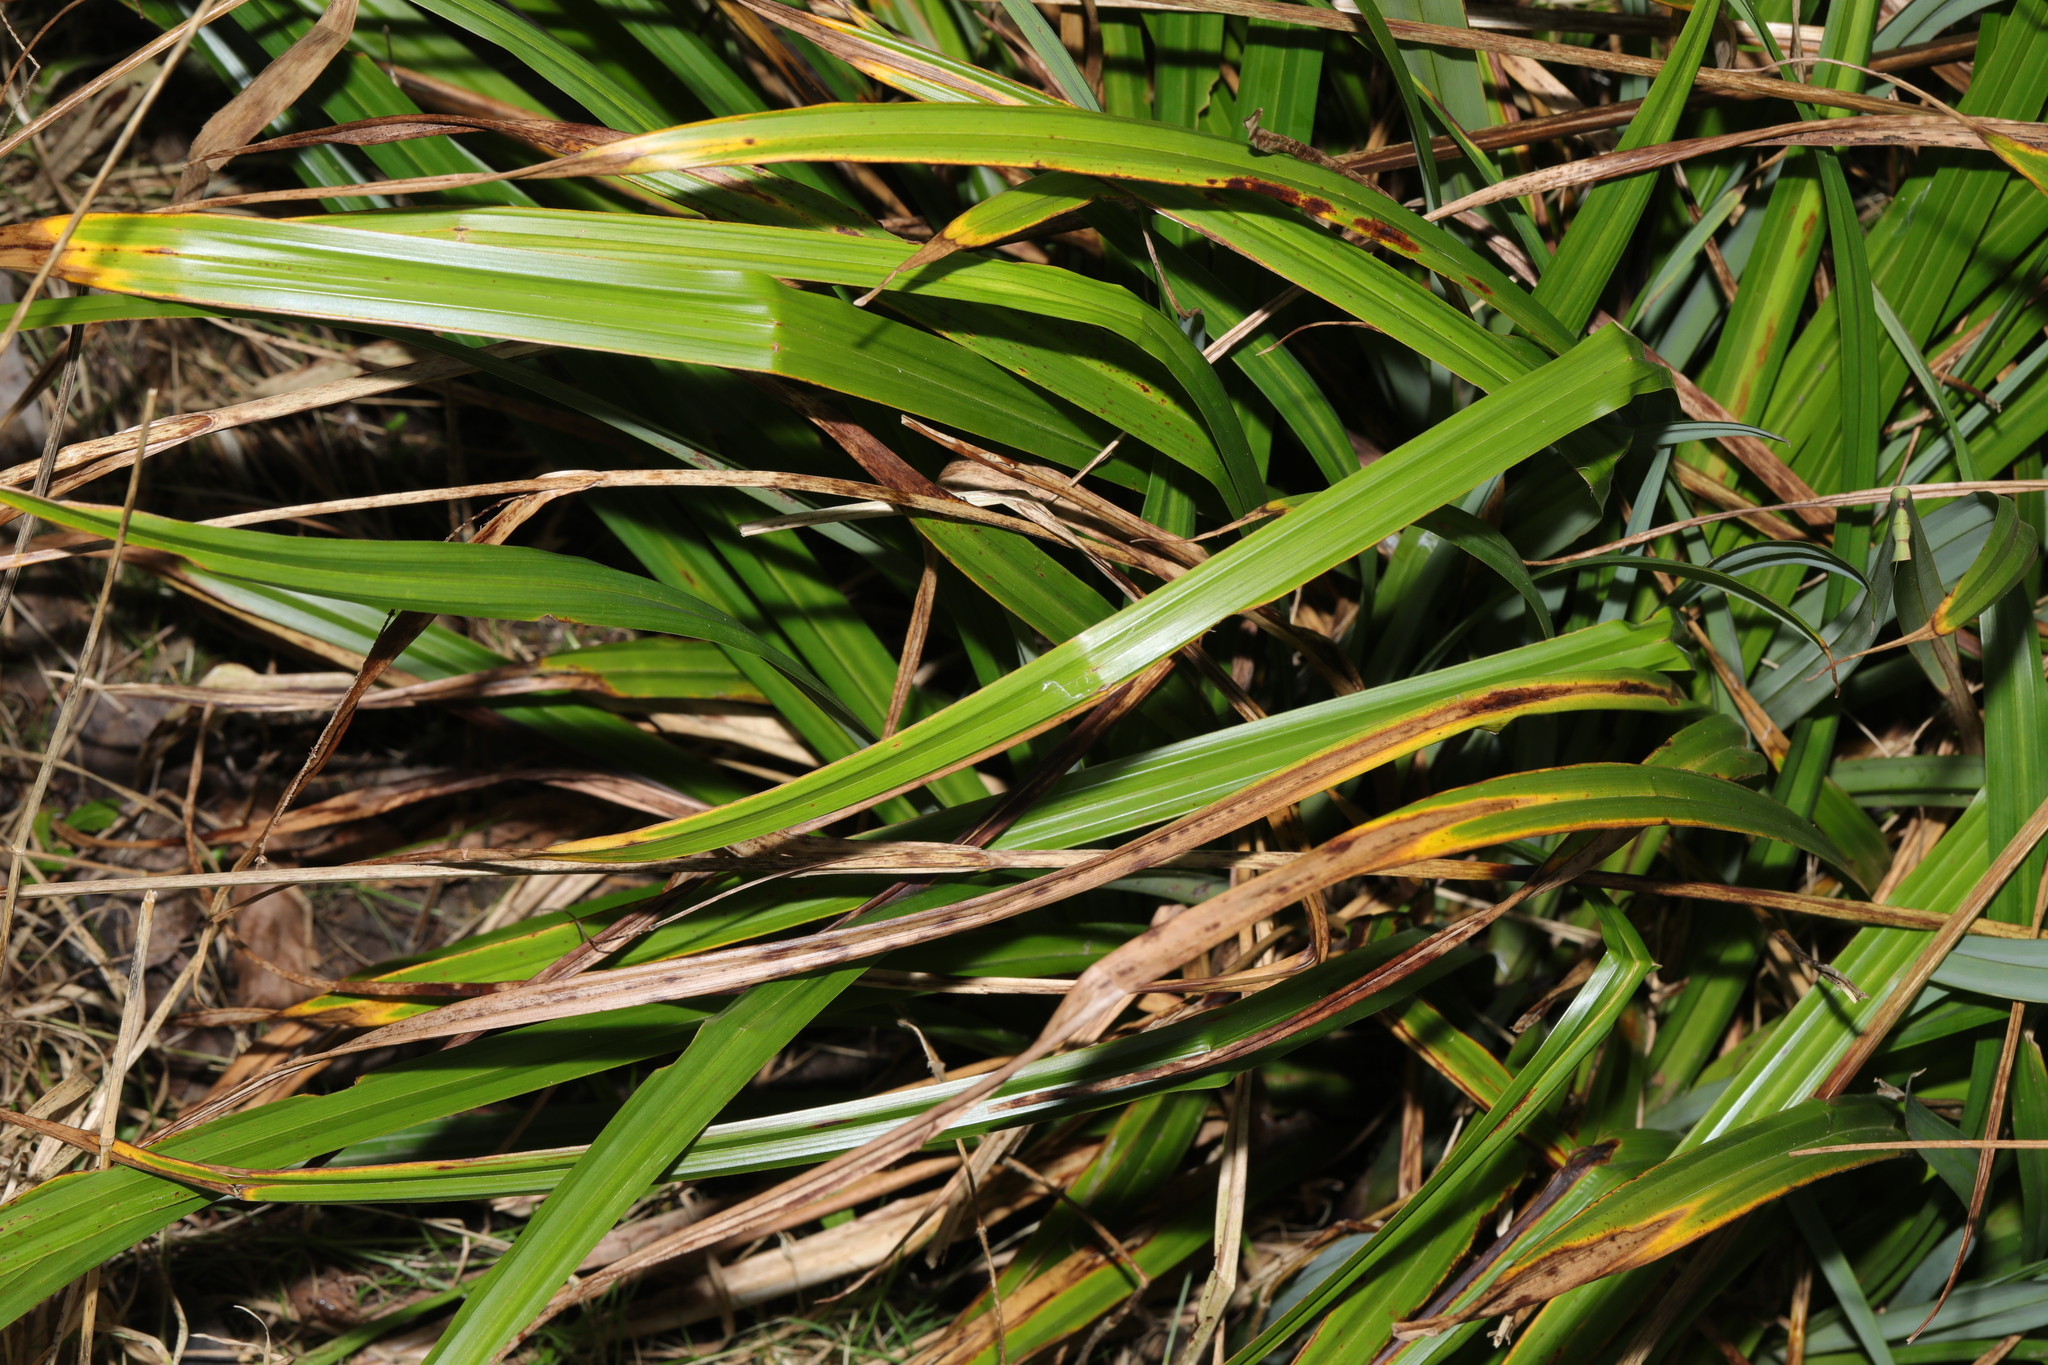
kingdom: Plantae
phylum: Tracheophyta
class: Liliopsida
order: Poales
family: Cyperaceae
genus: Carex
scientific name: Carex pendula
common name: Pendulous sedge
